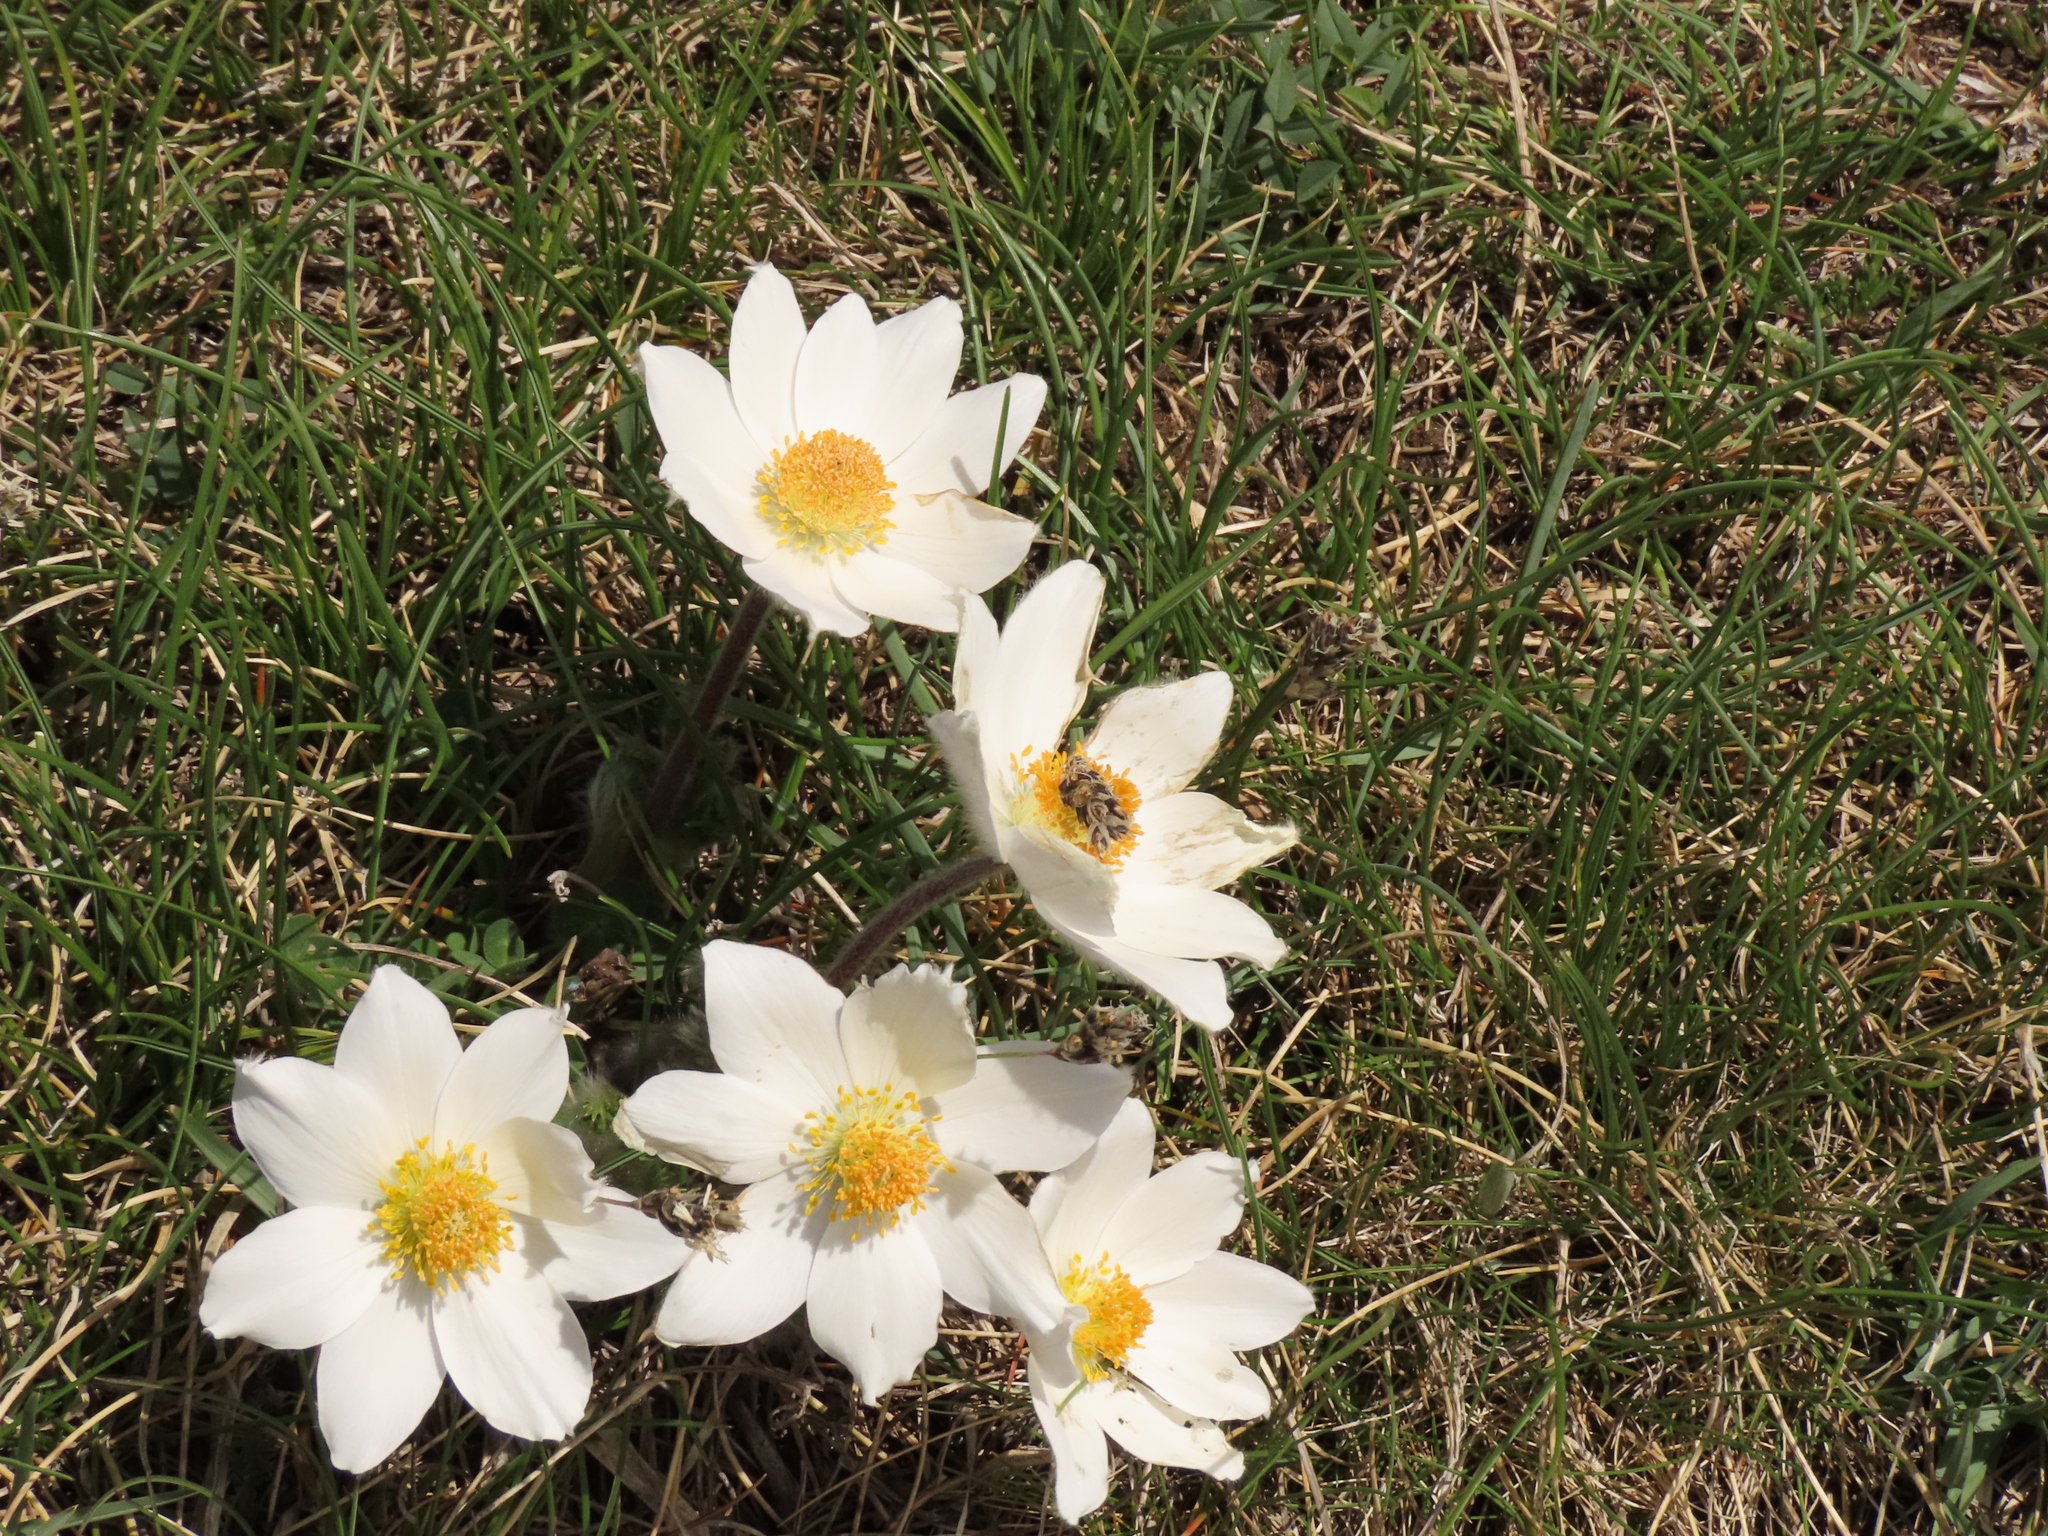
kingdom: Plantae
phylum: Tracheophyta
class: Magnoliopsida
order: Ranunculales
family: Ranunculaceae
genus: Pulsatilla
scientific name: Pulsatilla alpina
